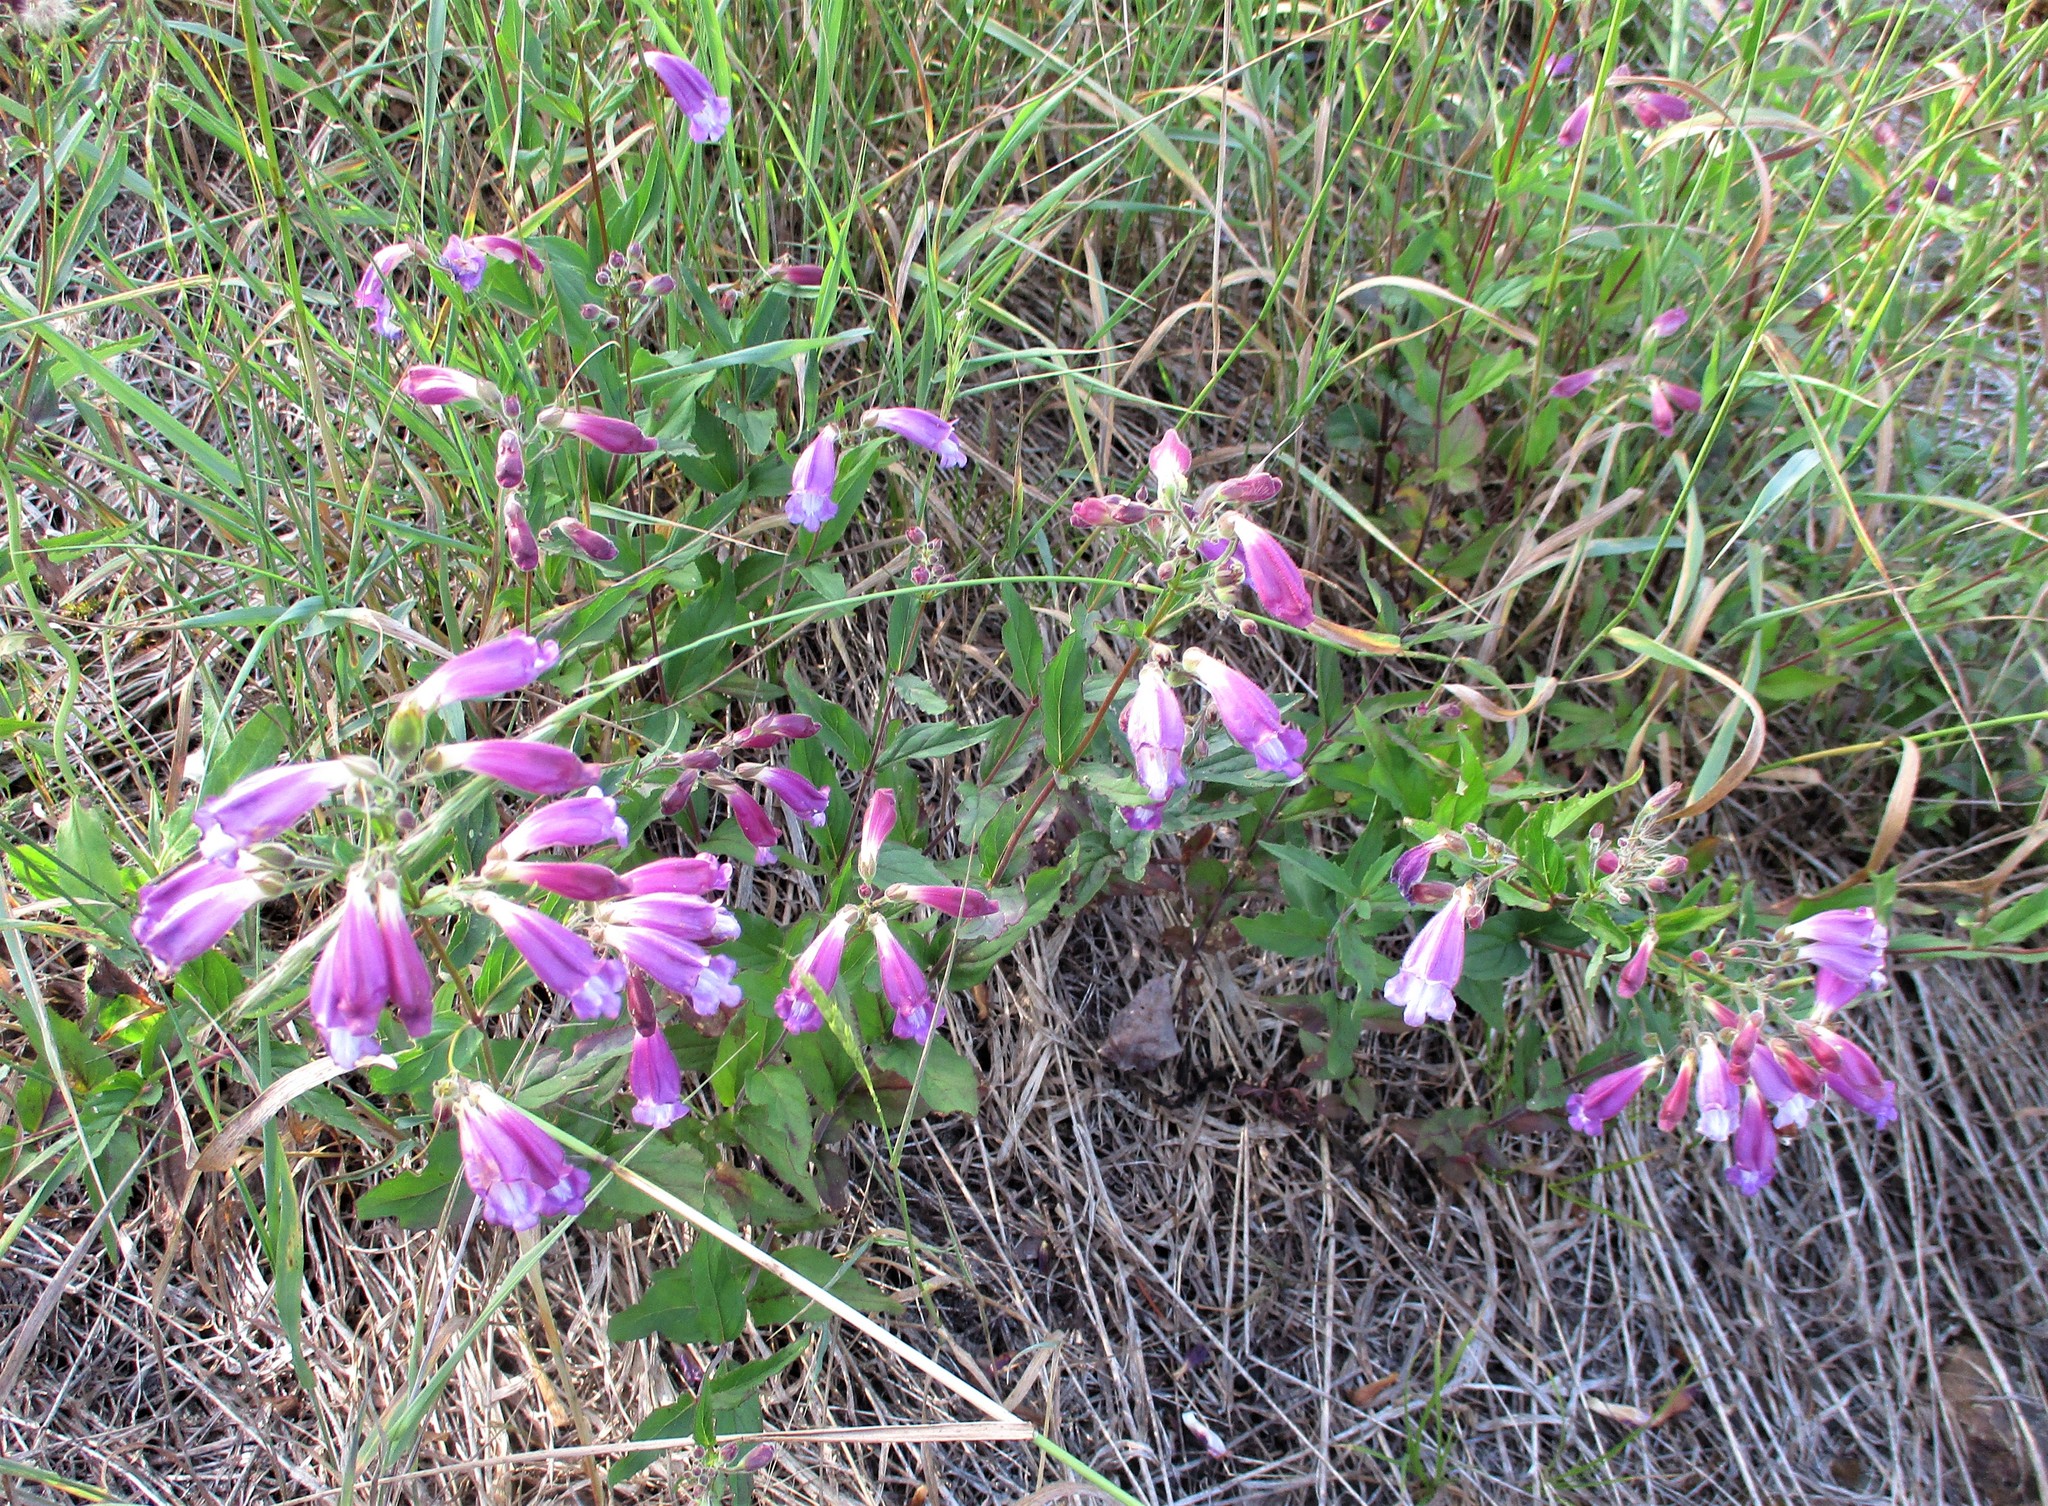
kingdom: Plantae
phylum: Tracheophyta
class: Magnoliopsida
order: Lamiales
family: Plantaginaceae
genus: Nothochelone
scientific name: Nothochelone nemorosa
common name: Woodland beardtongue
